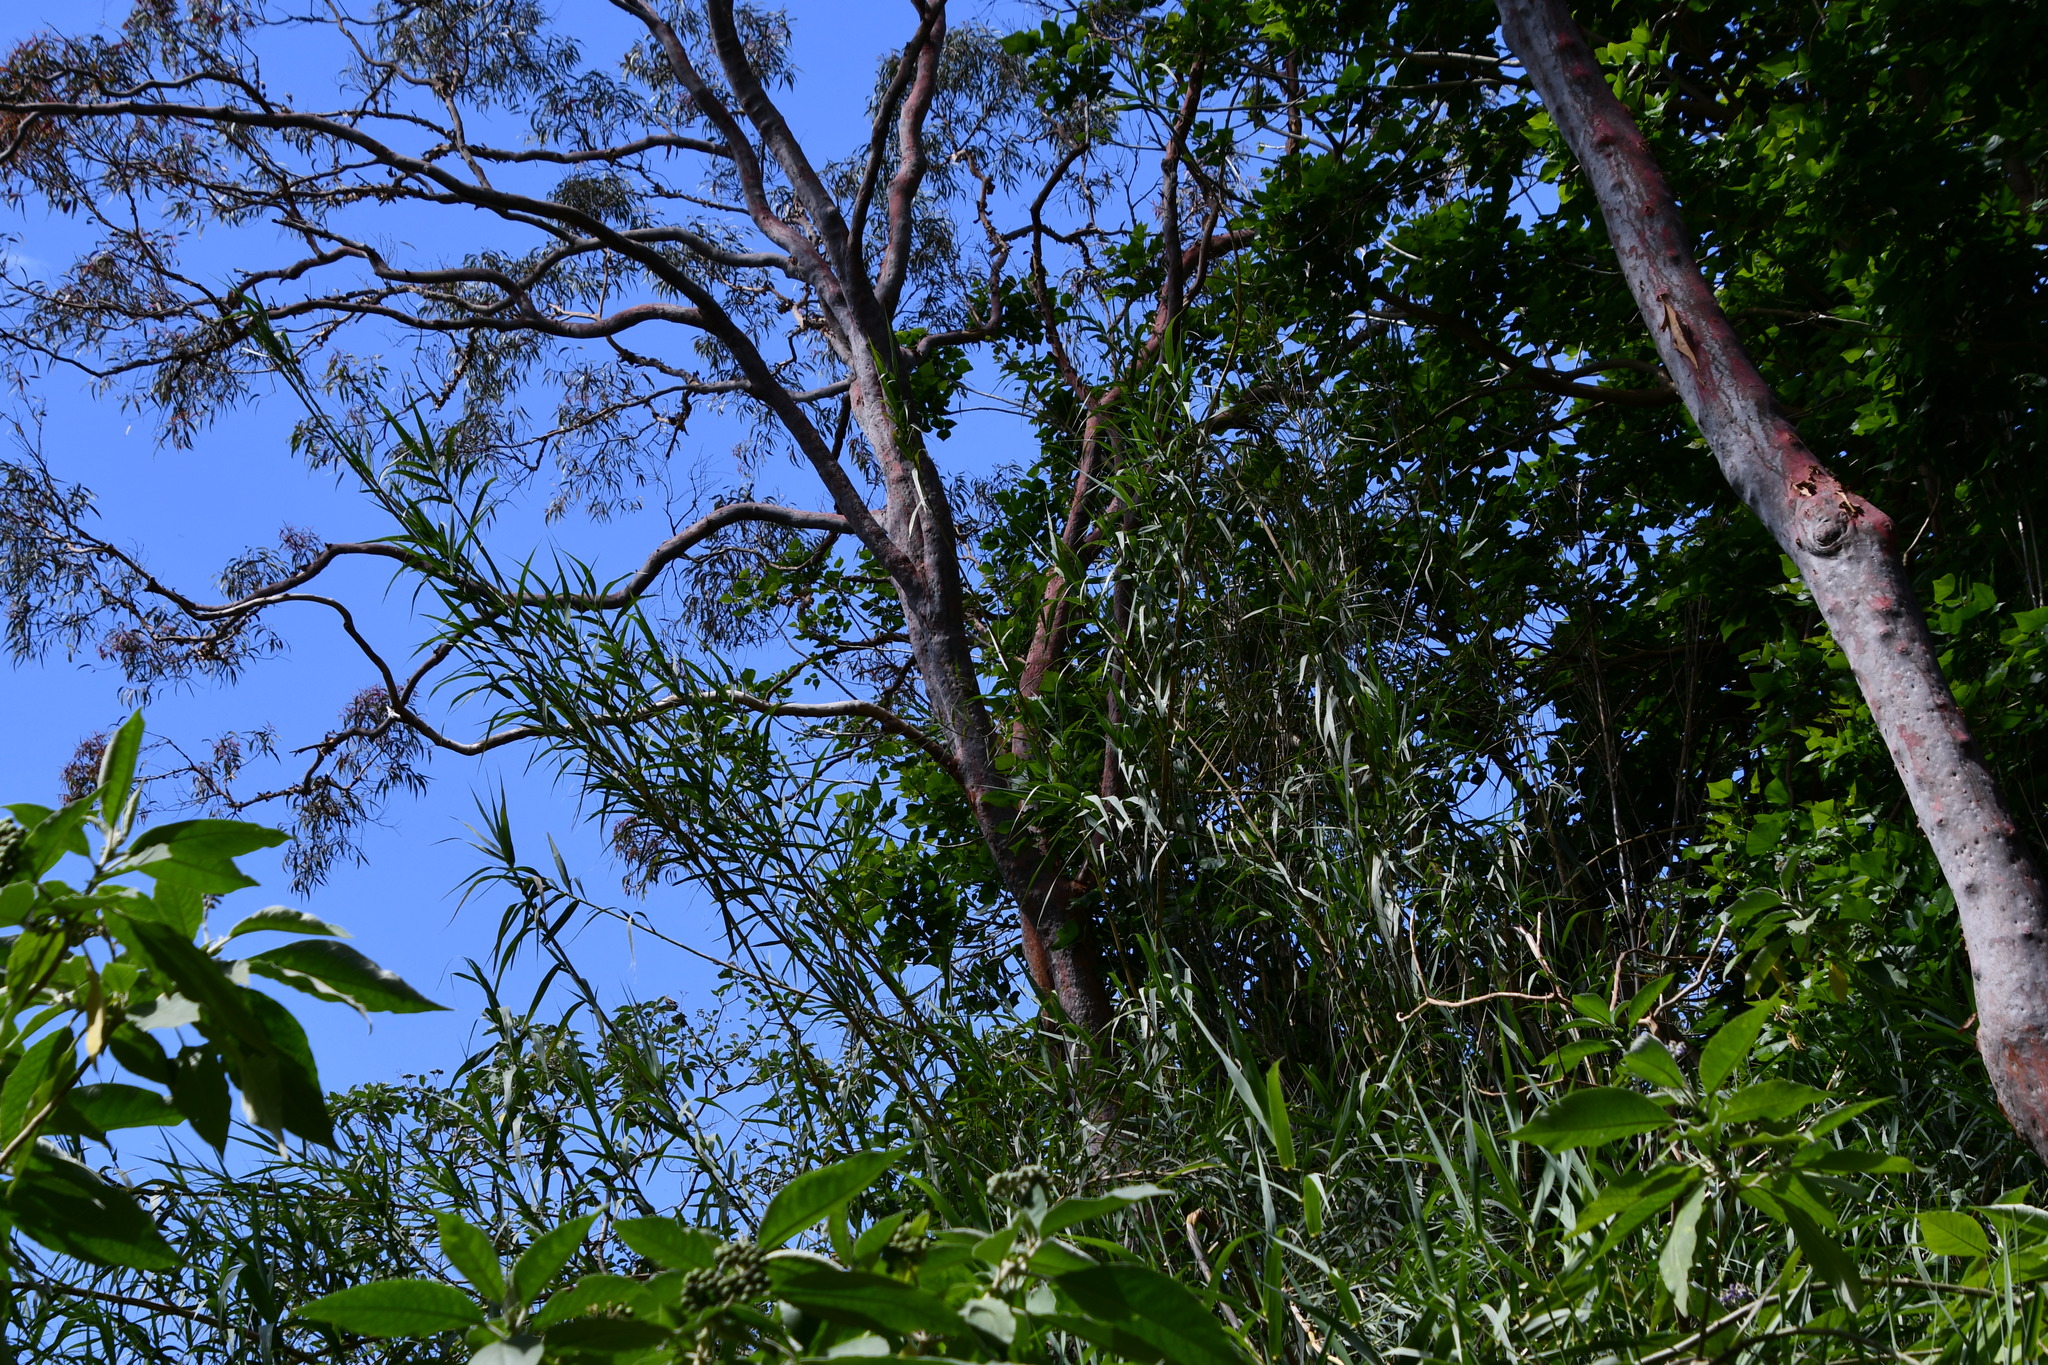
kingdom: Plantae
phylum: Tracheophyta
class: Liliopsida
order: Poales
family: Poaceae
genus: Arundo
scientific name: Arundo donax
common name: Giant reed
